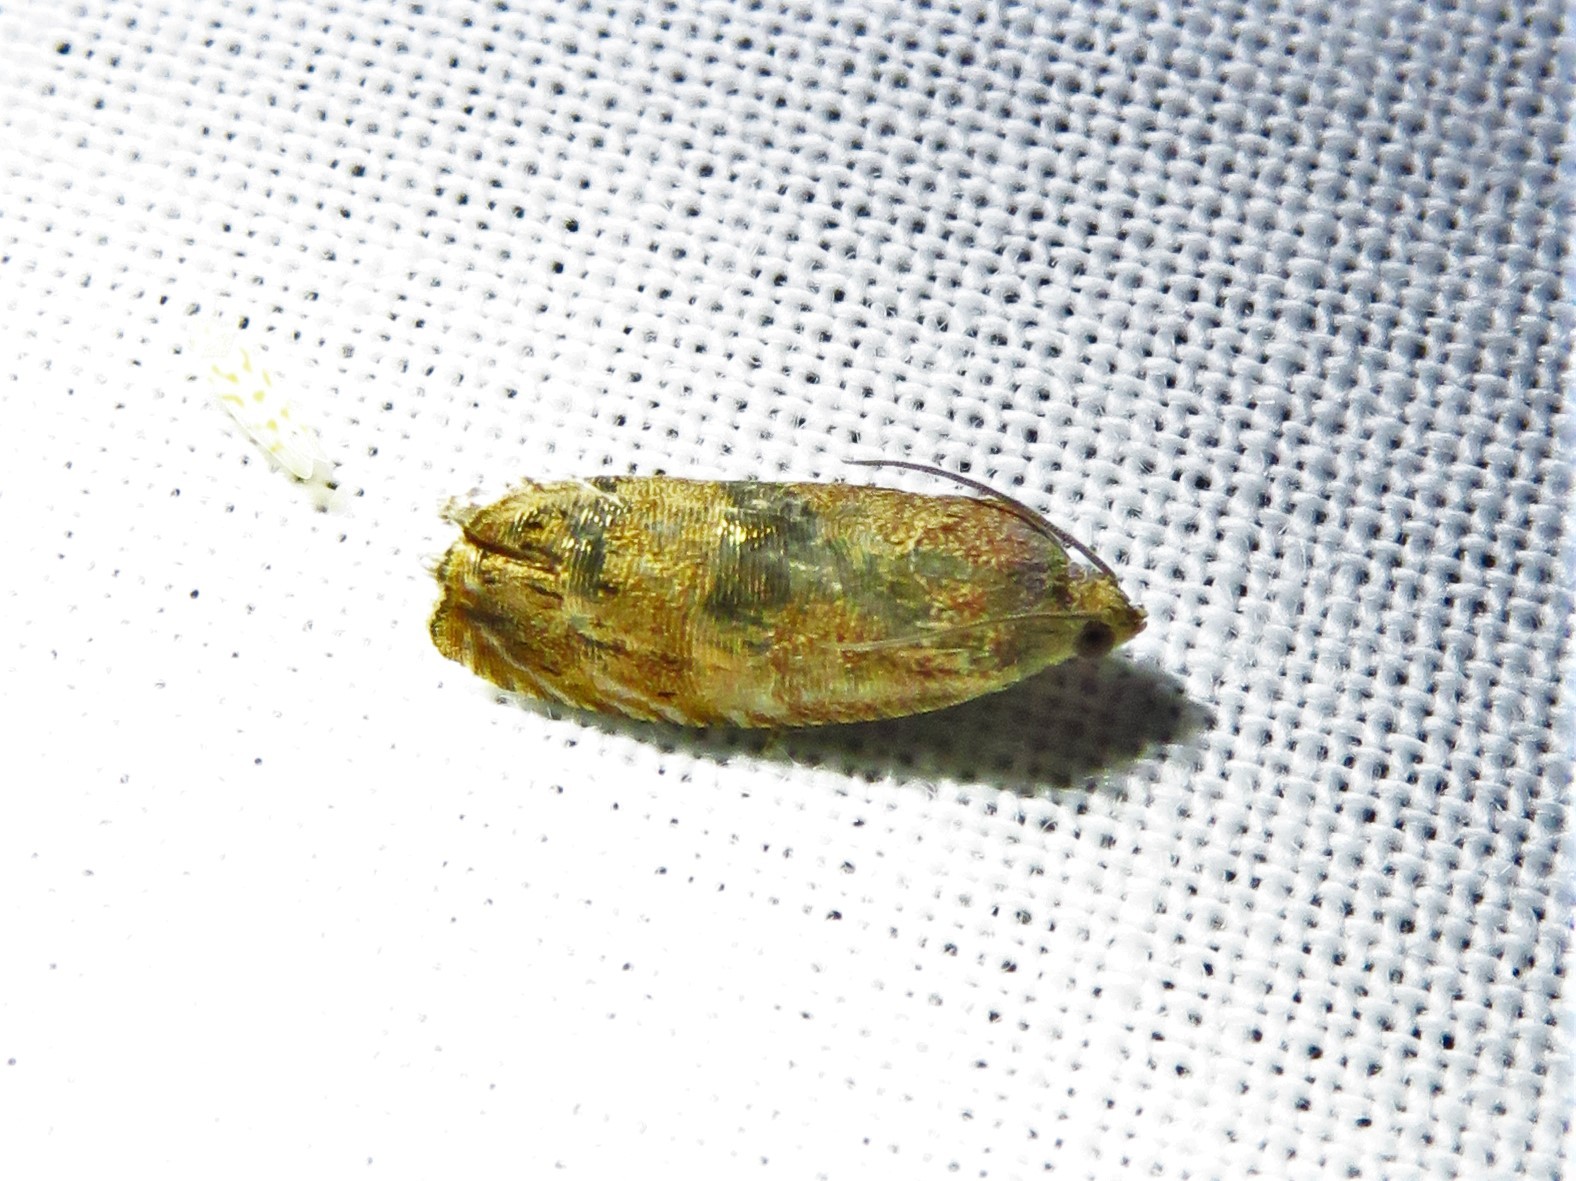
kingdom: Animalia
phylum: Arthropoda
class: Insecta
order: Lepidoptera
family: Tortricidae
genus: Cydia
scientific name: Cydia latiferreana
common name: Filbertworm moth
